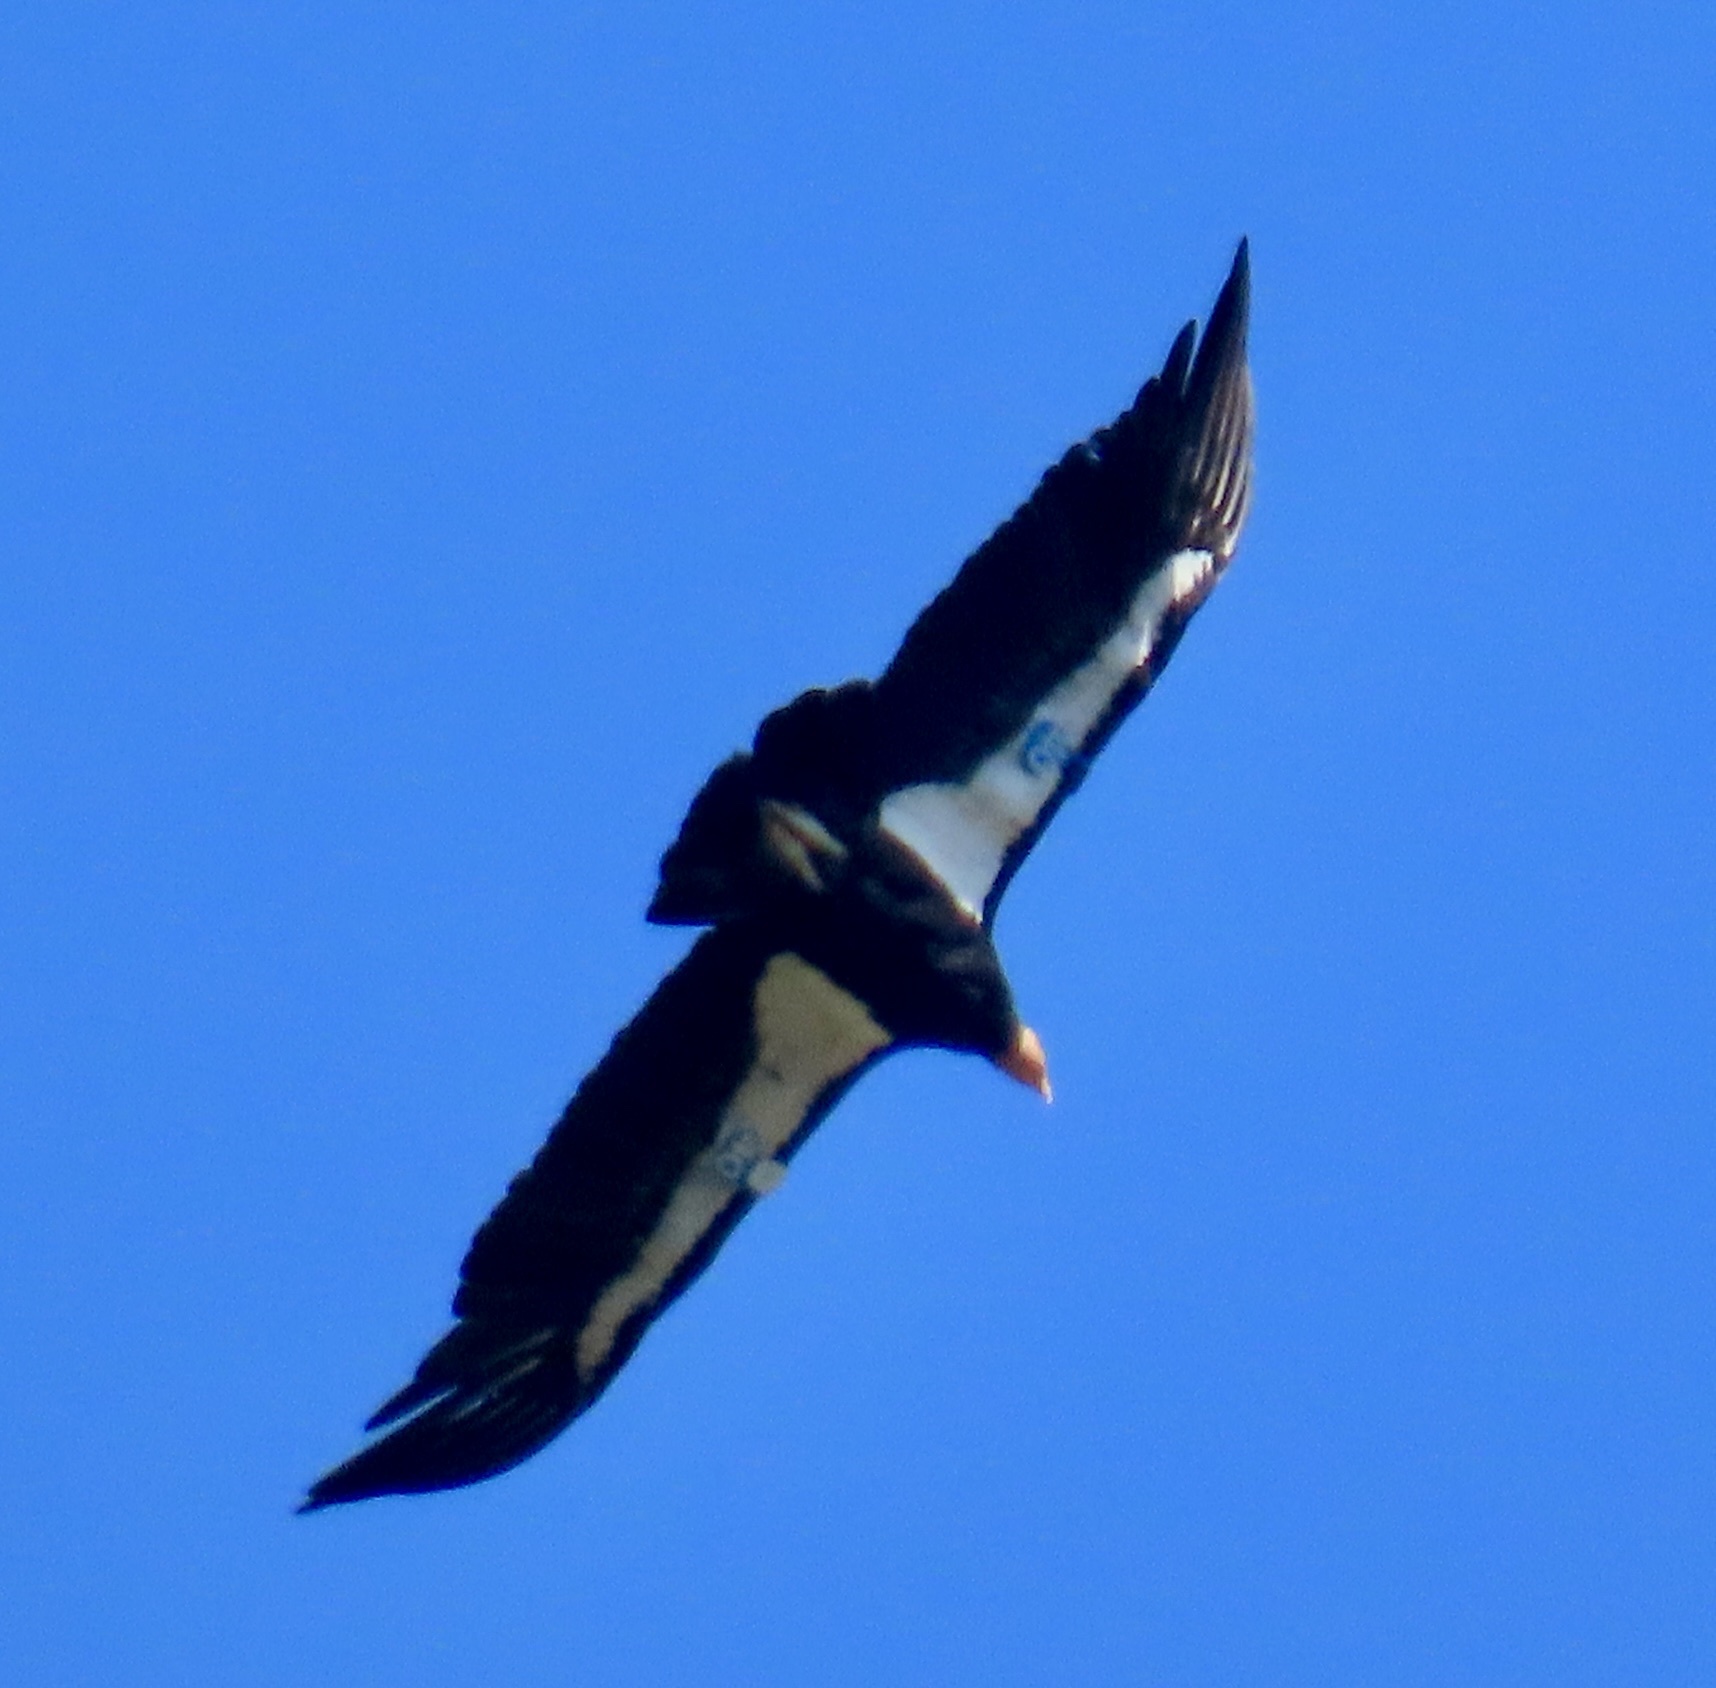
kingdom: Animalia
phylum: Chordata
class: Aves
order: Accipitriformes
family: Cathartidae
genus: Gymnogyps
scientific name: Gymnogyps californianus
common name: California condor
